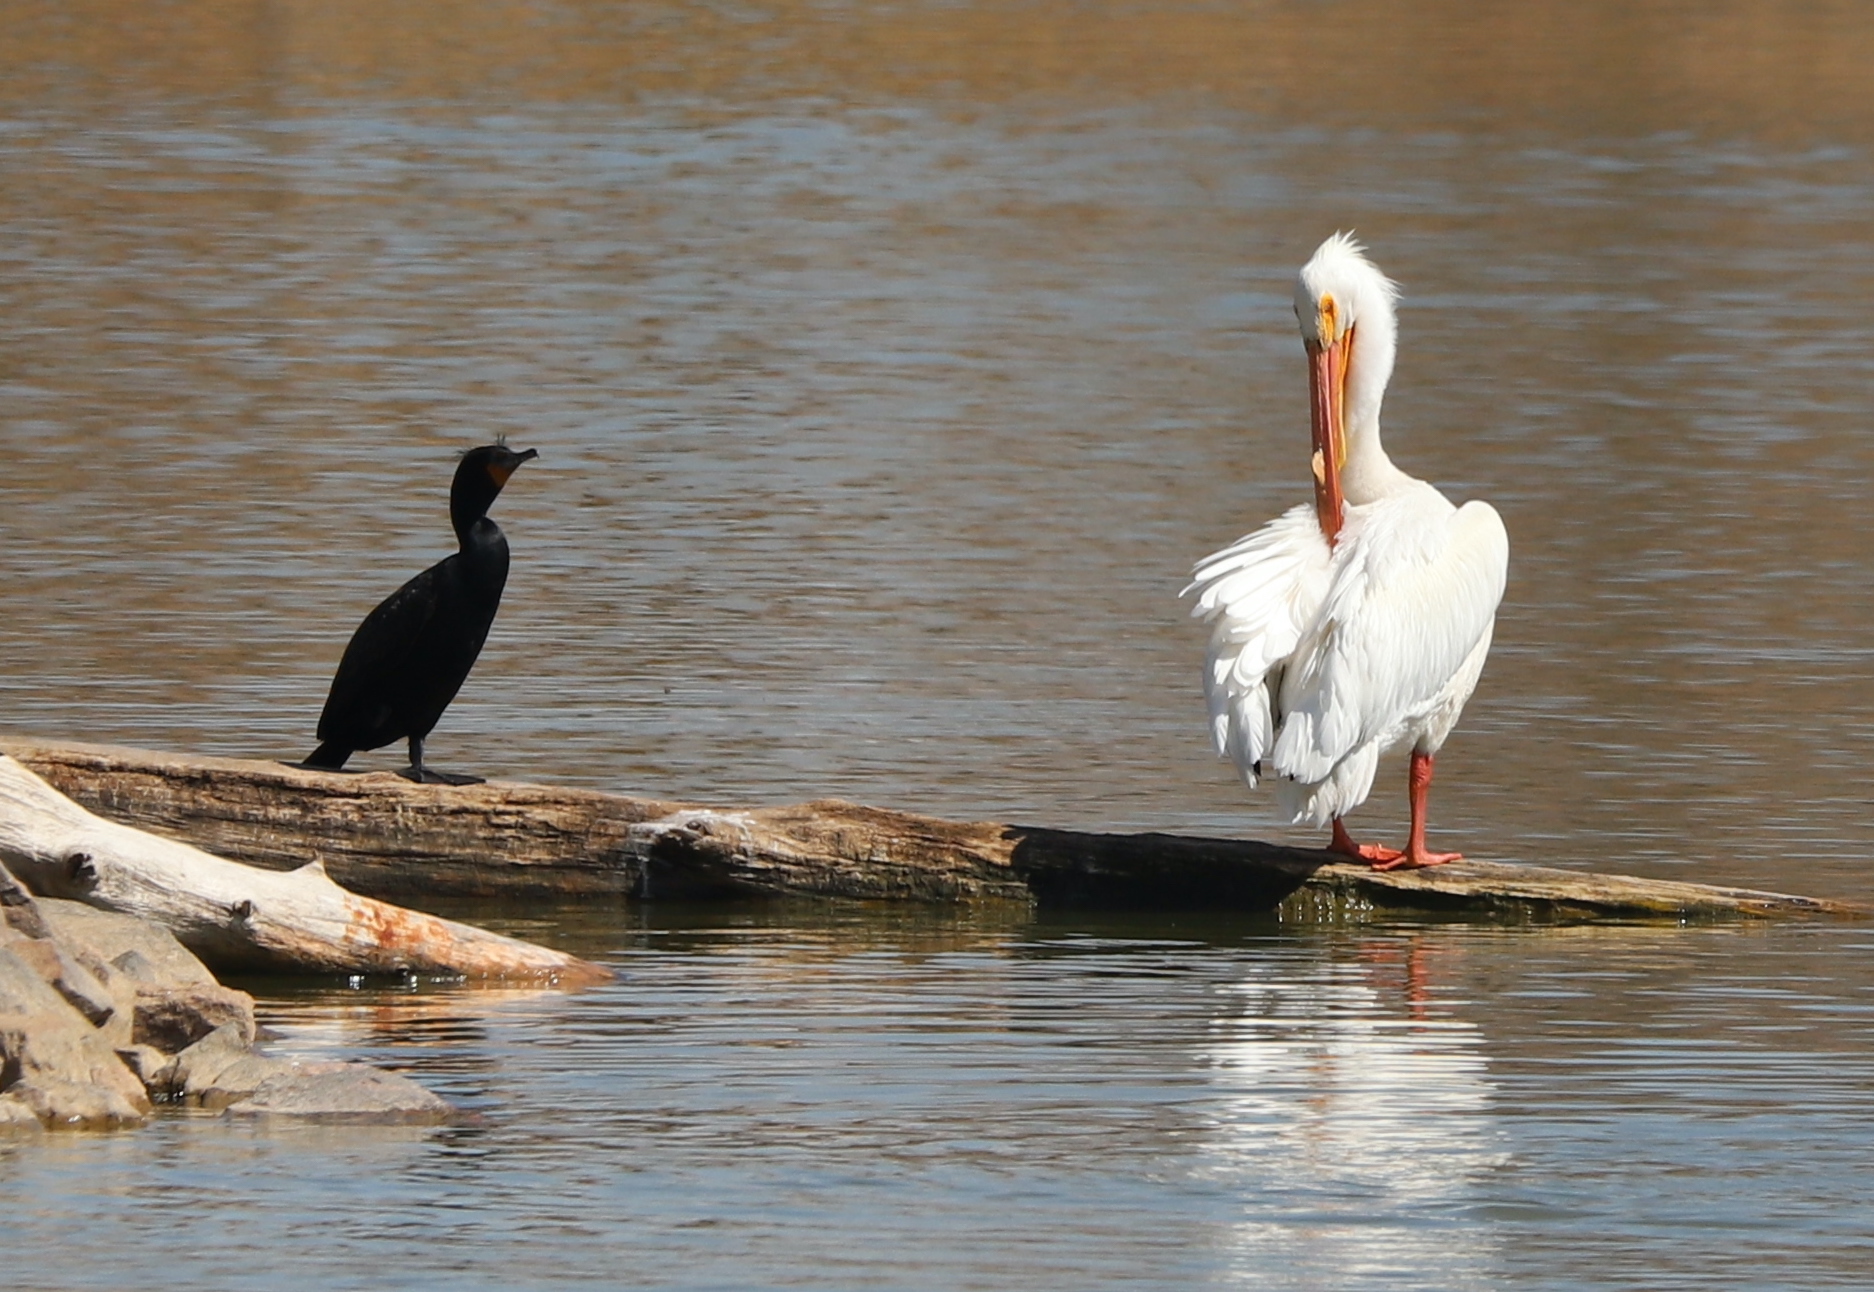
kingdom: Animalia
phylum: Chordata
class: Aves
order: Pelecaniformes
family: Pelecanidae
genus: Pelecanus
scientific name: Pelecanus erythrorhynchos
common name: American white pelican
